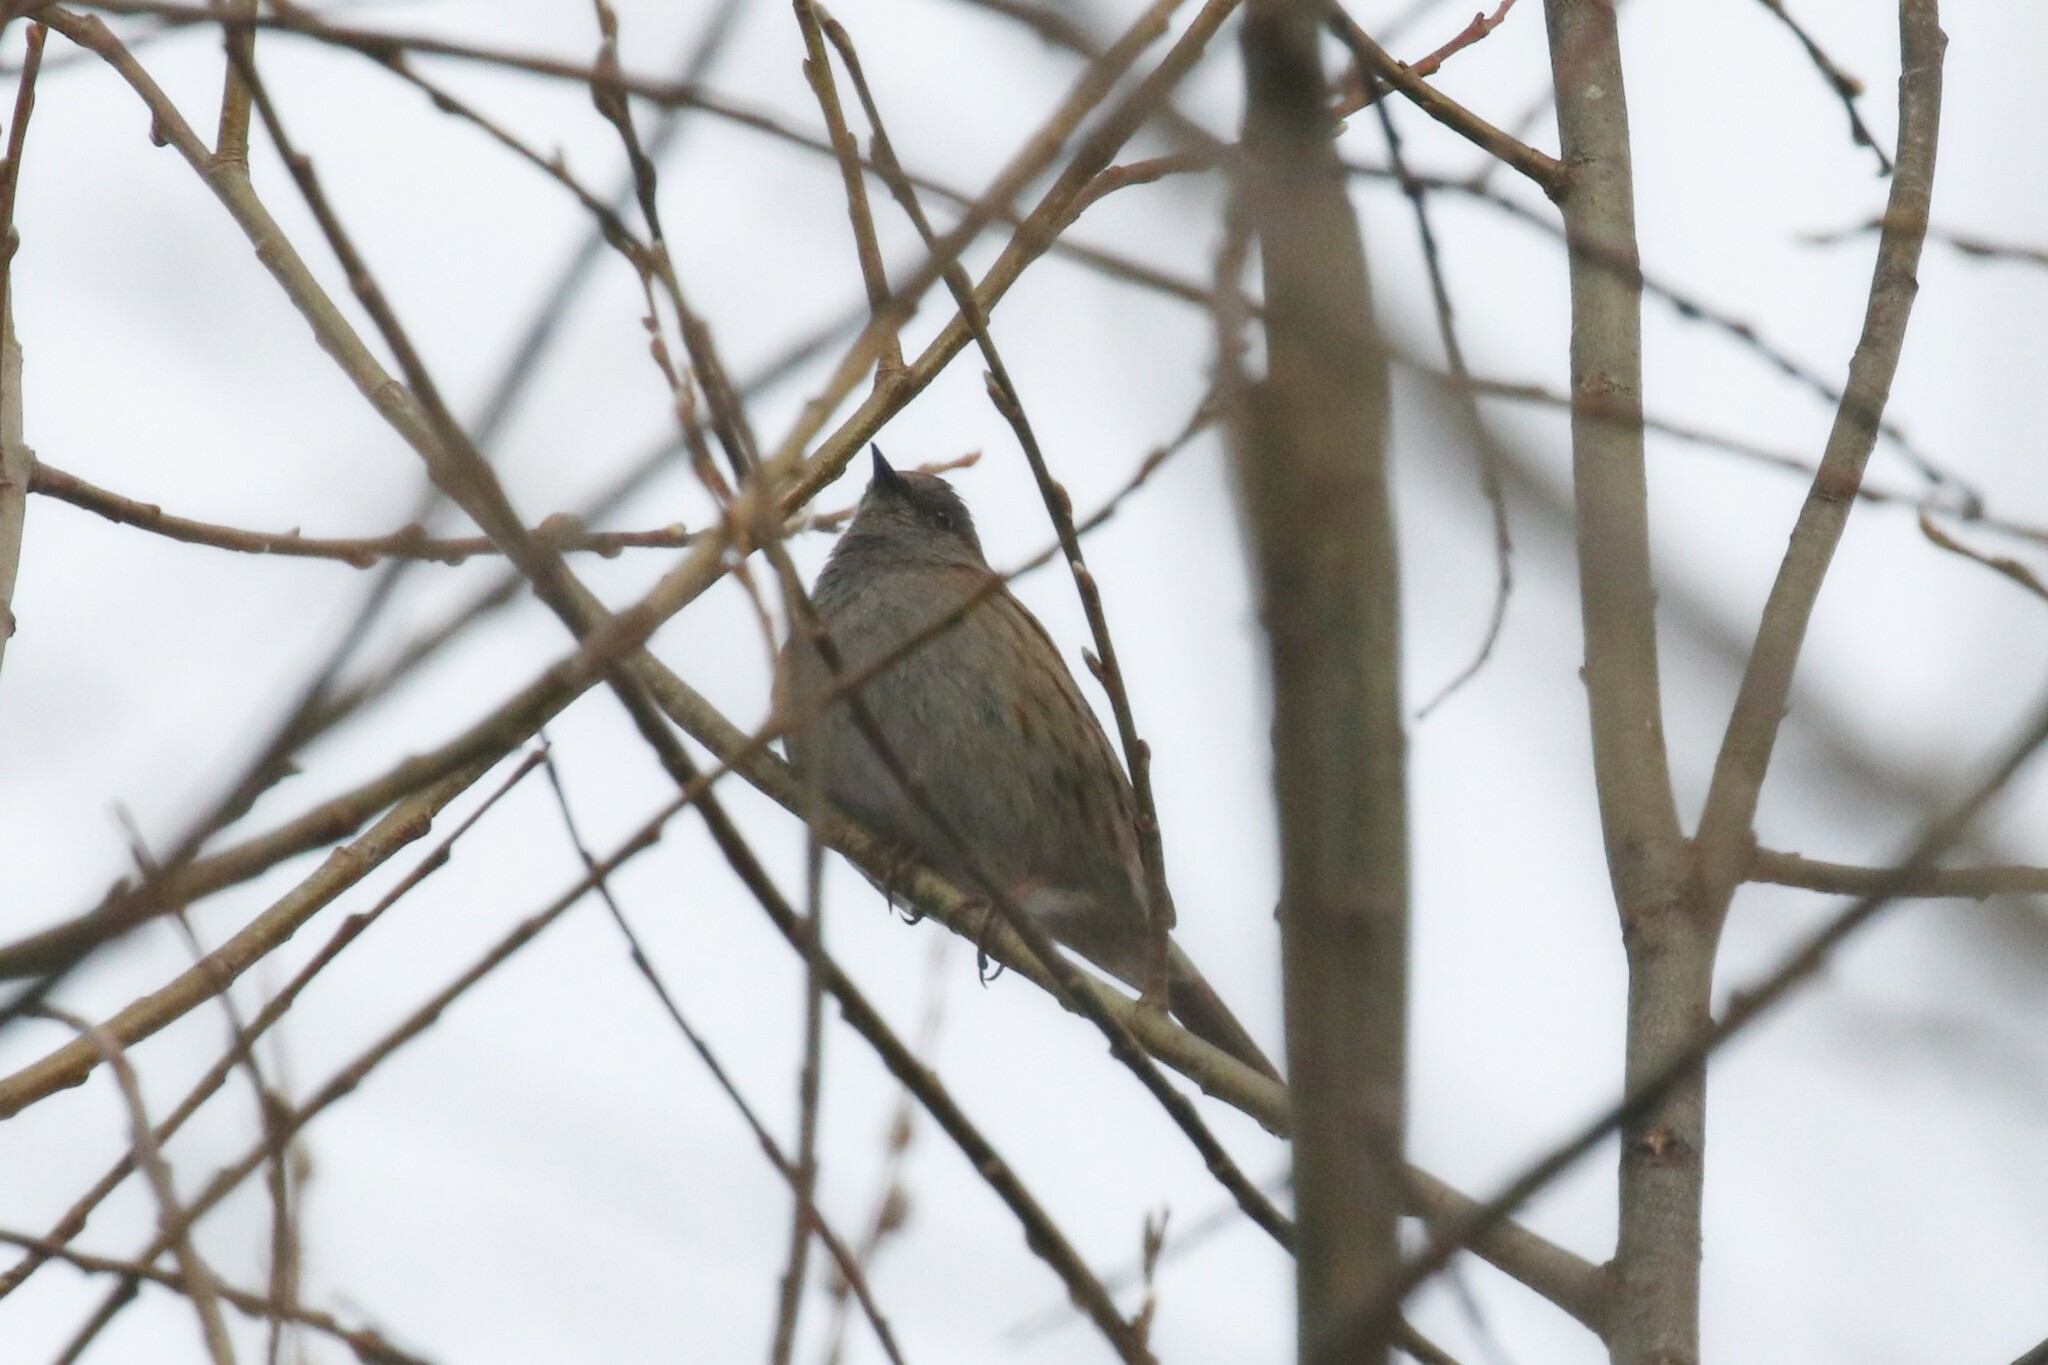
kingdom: Animalia
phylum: Chordata
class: Aves
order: Passeriformes
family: Prunellidae
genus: Prunella
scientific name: Prunella modularis
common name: Dunnock
